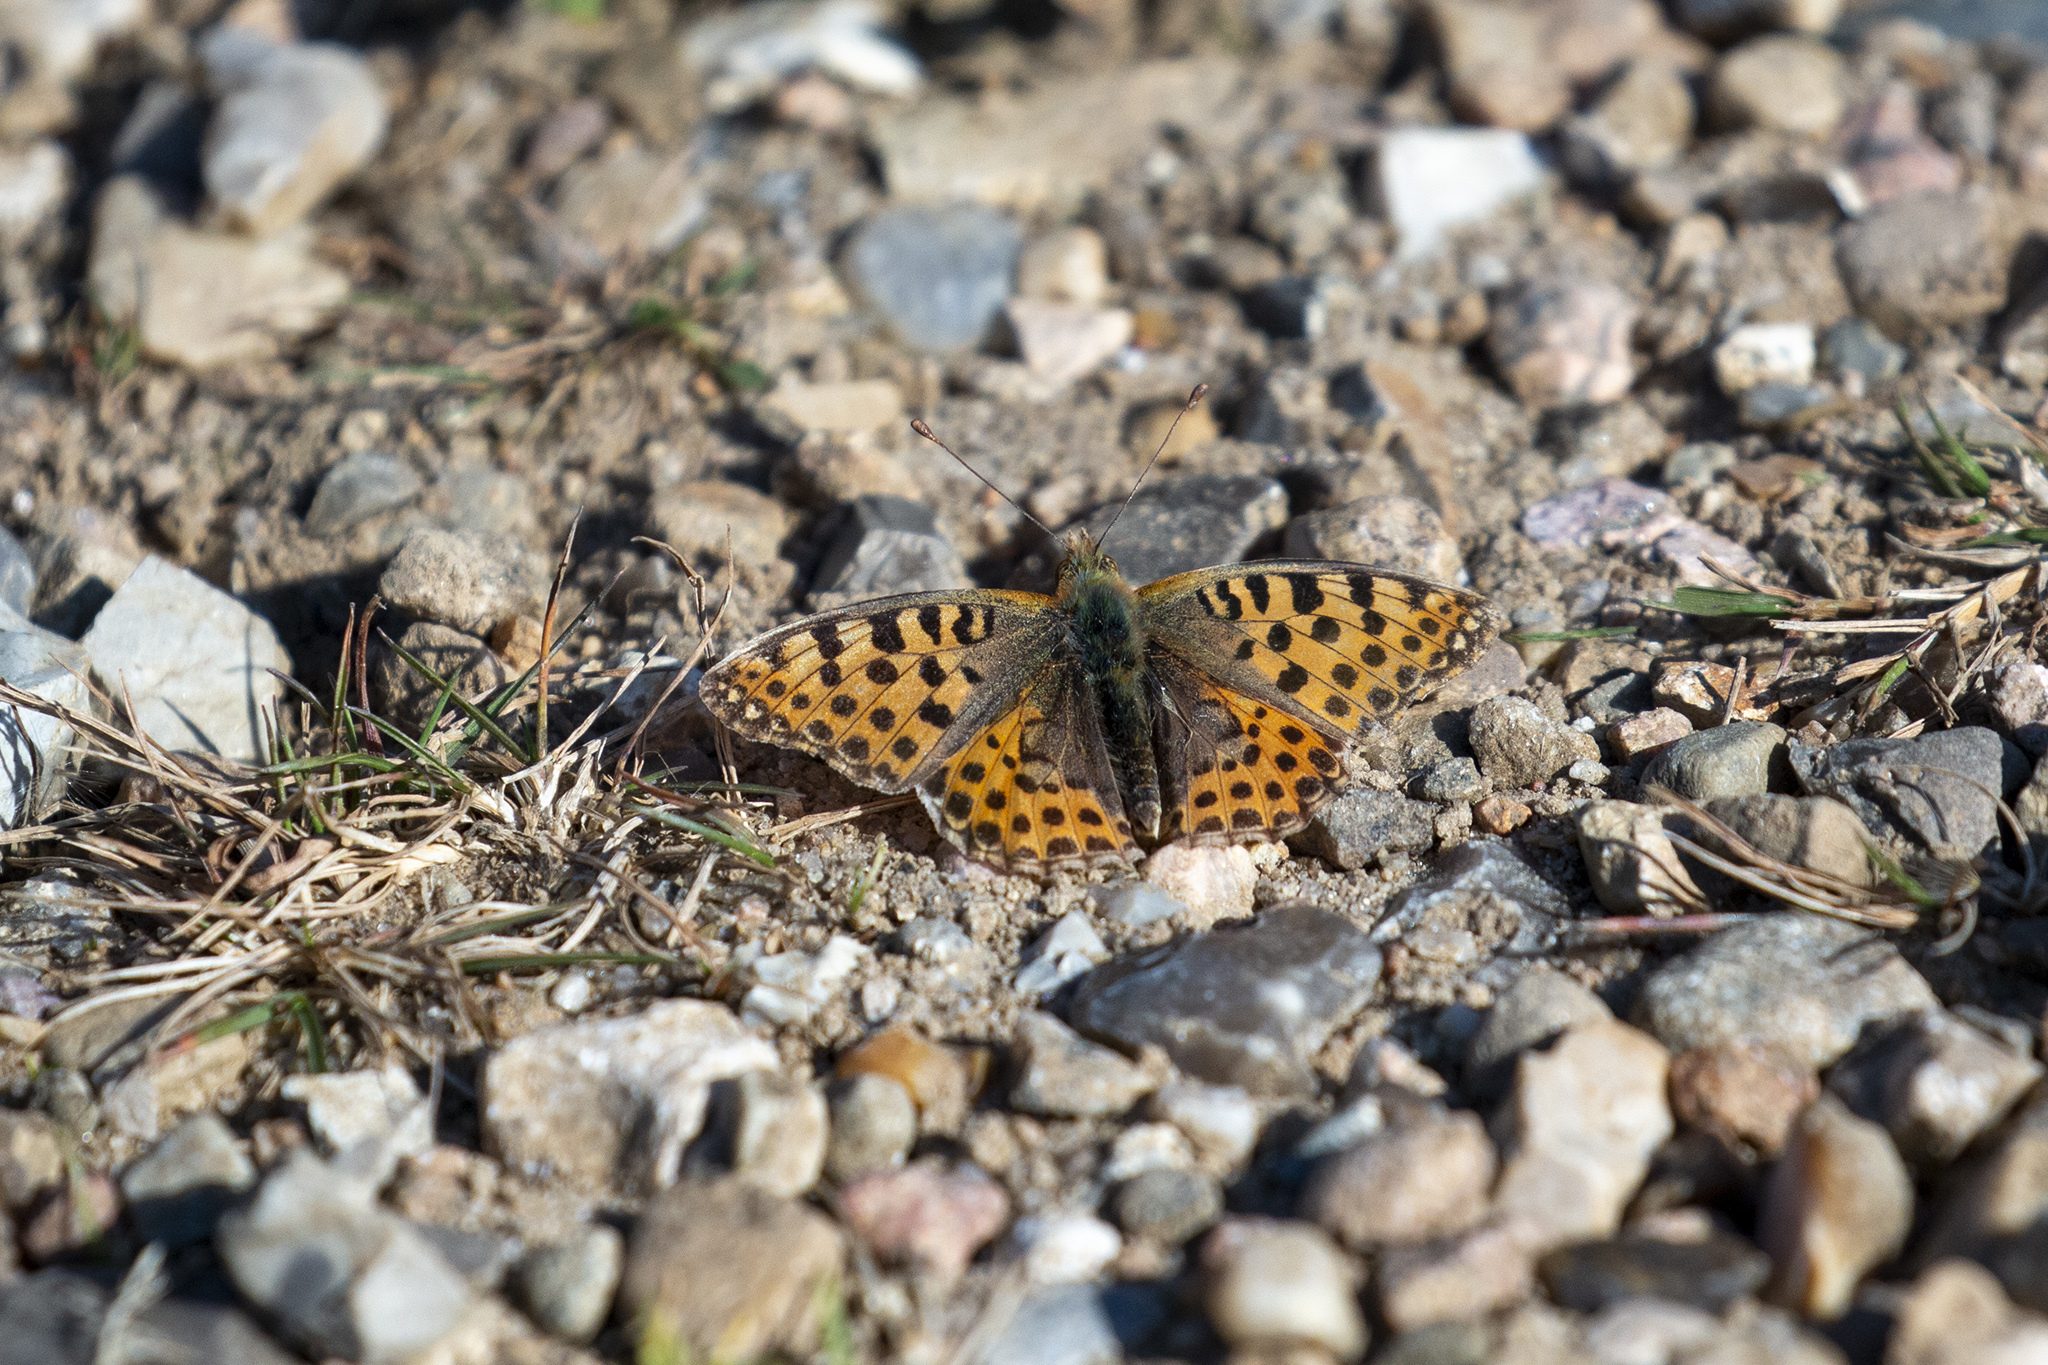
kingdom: Animalia
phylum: Arthropoda
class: Insecta
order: Lepidoptera
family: Nymphalidae
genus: Issoria
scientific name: Issoria lathonia
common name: Queen of spain fritillary
